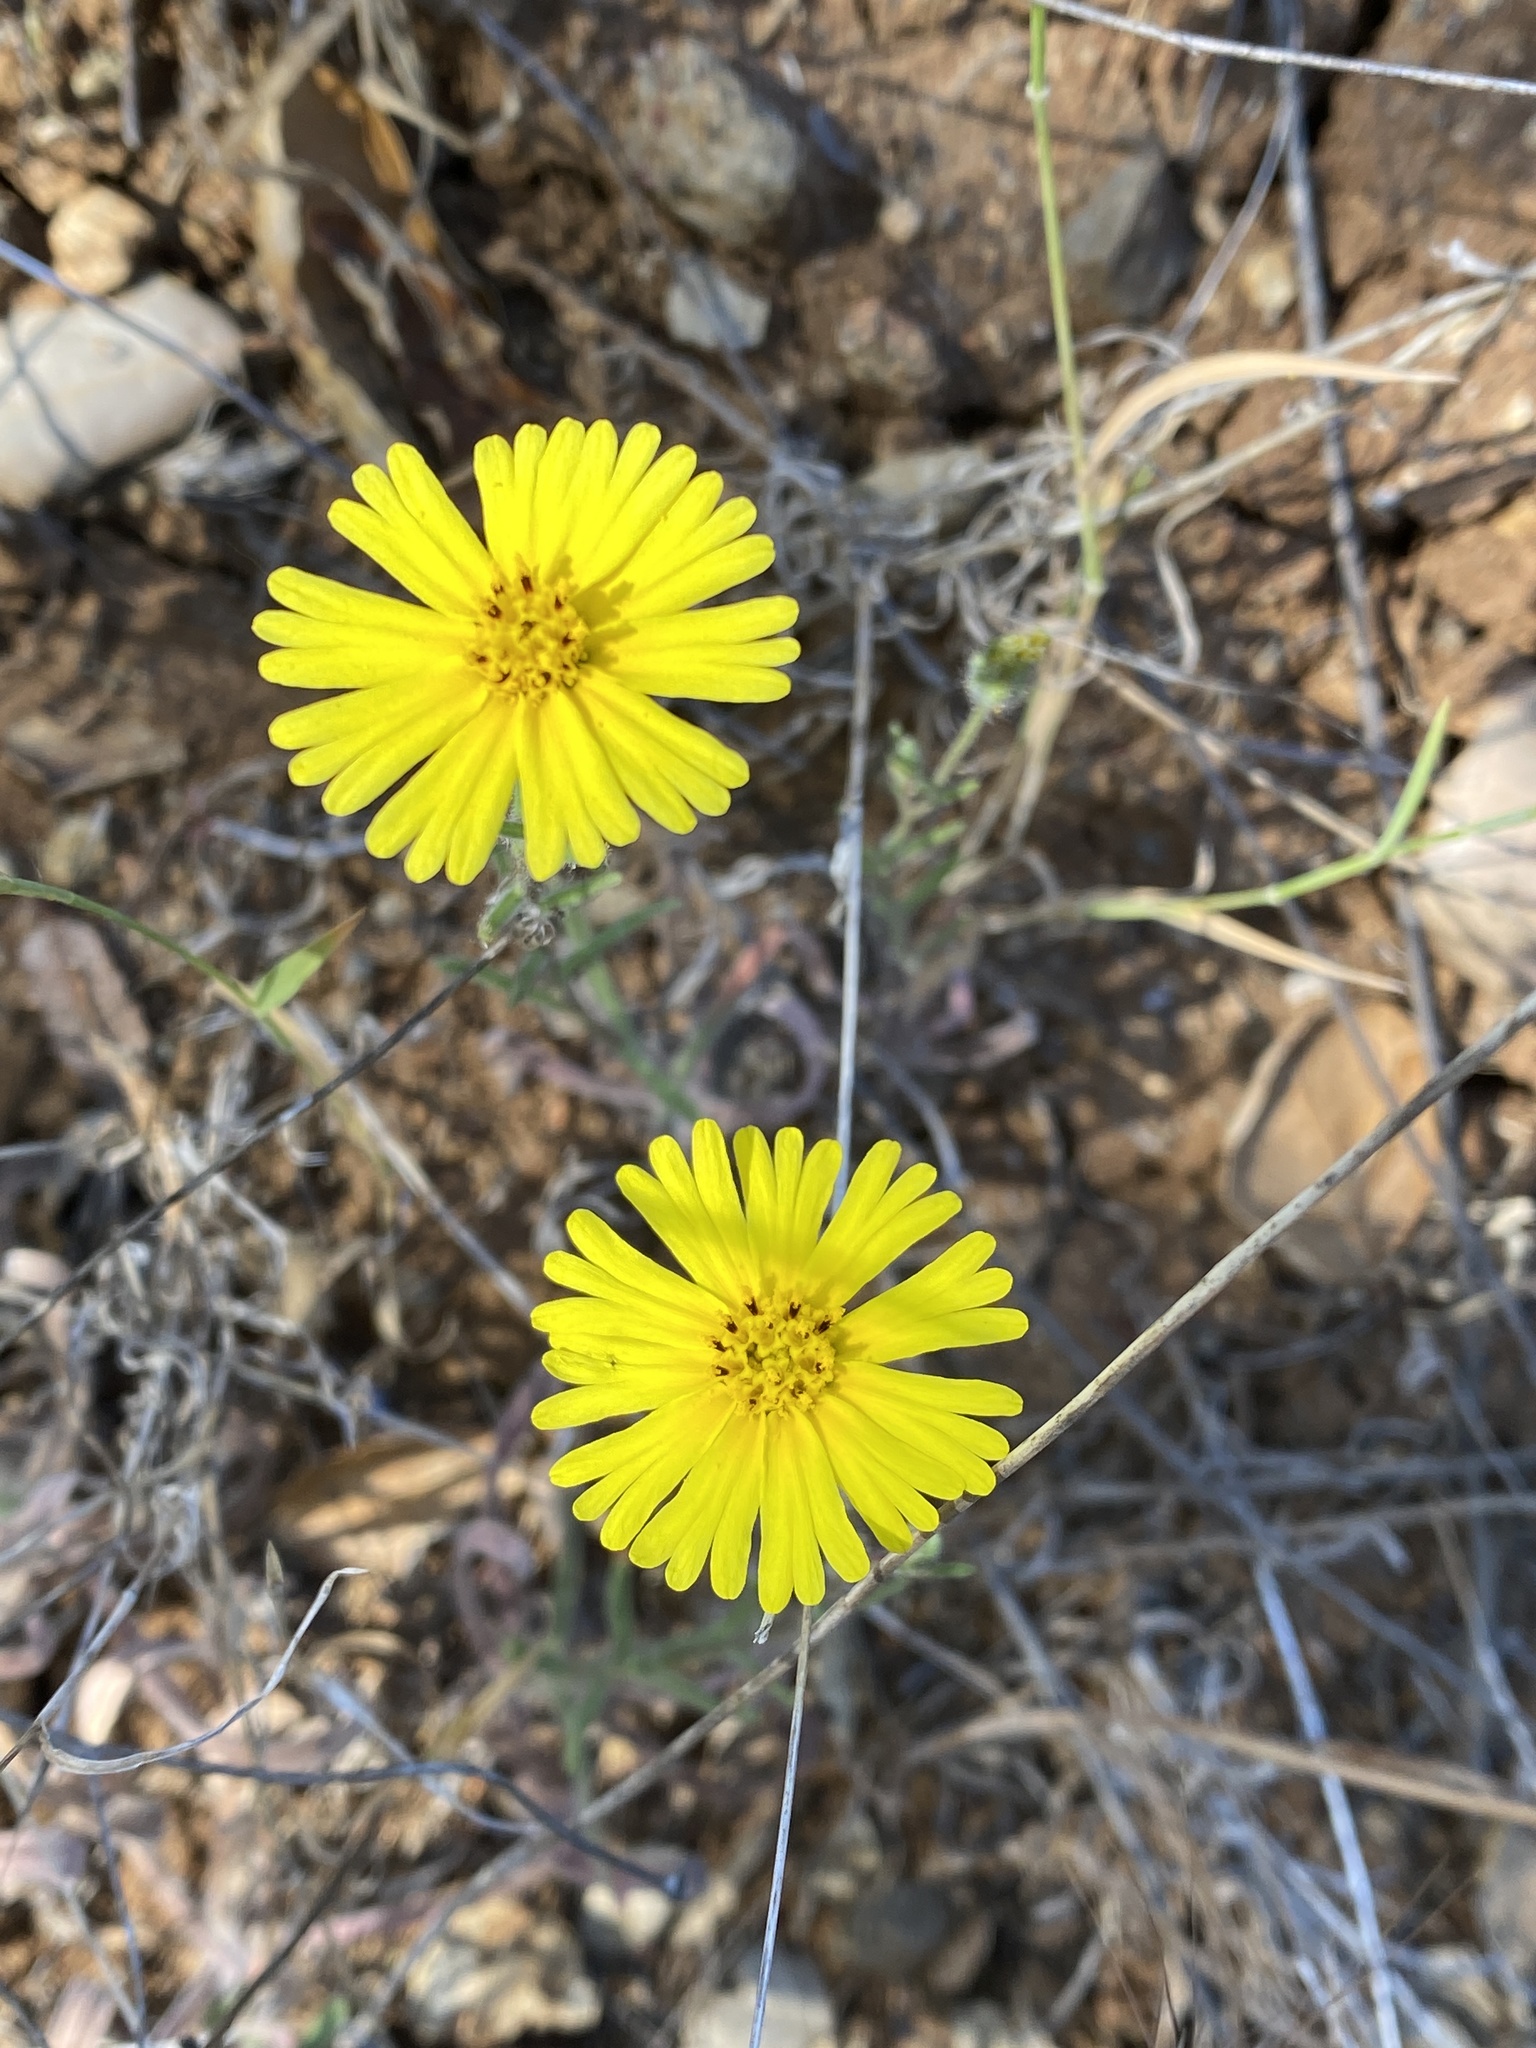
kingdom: Plantae
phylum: Tracheophyta
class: Magnoliopsida
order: Asterales
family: Asteraceae
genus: Madia
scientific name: Madia elegans
